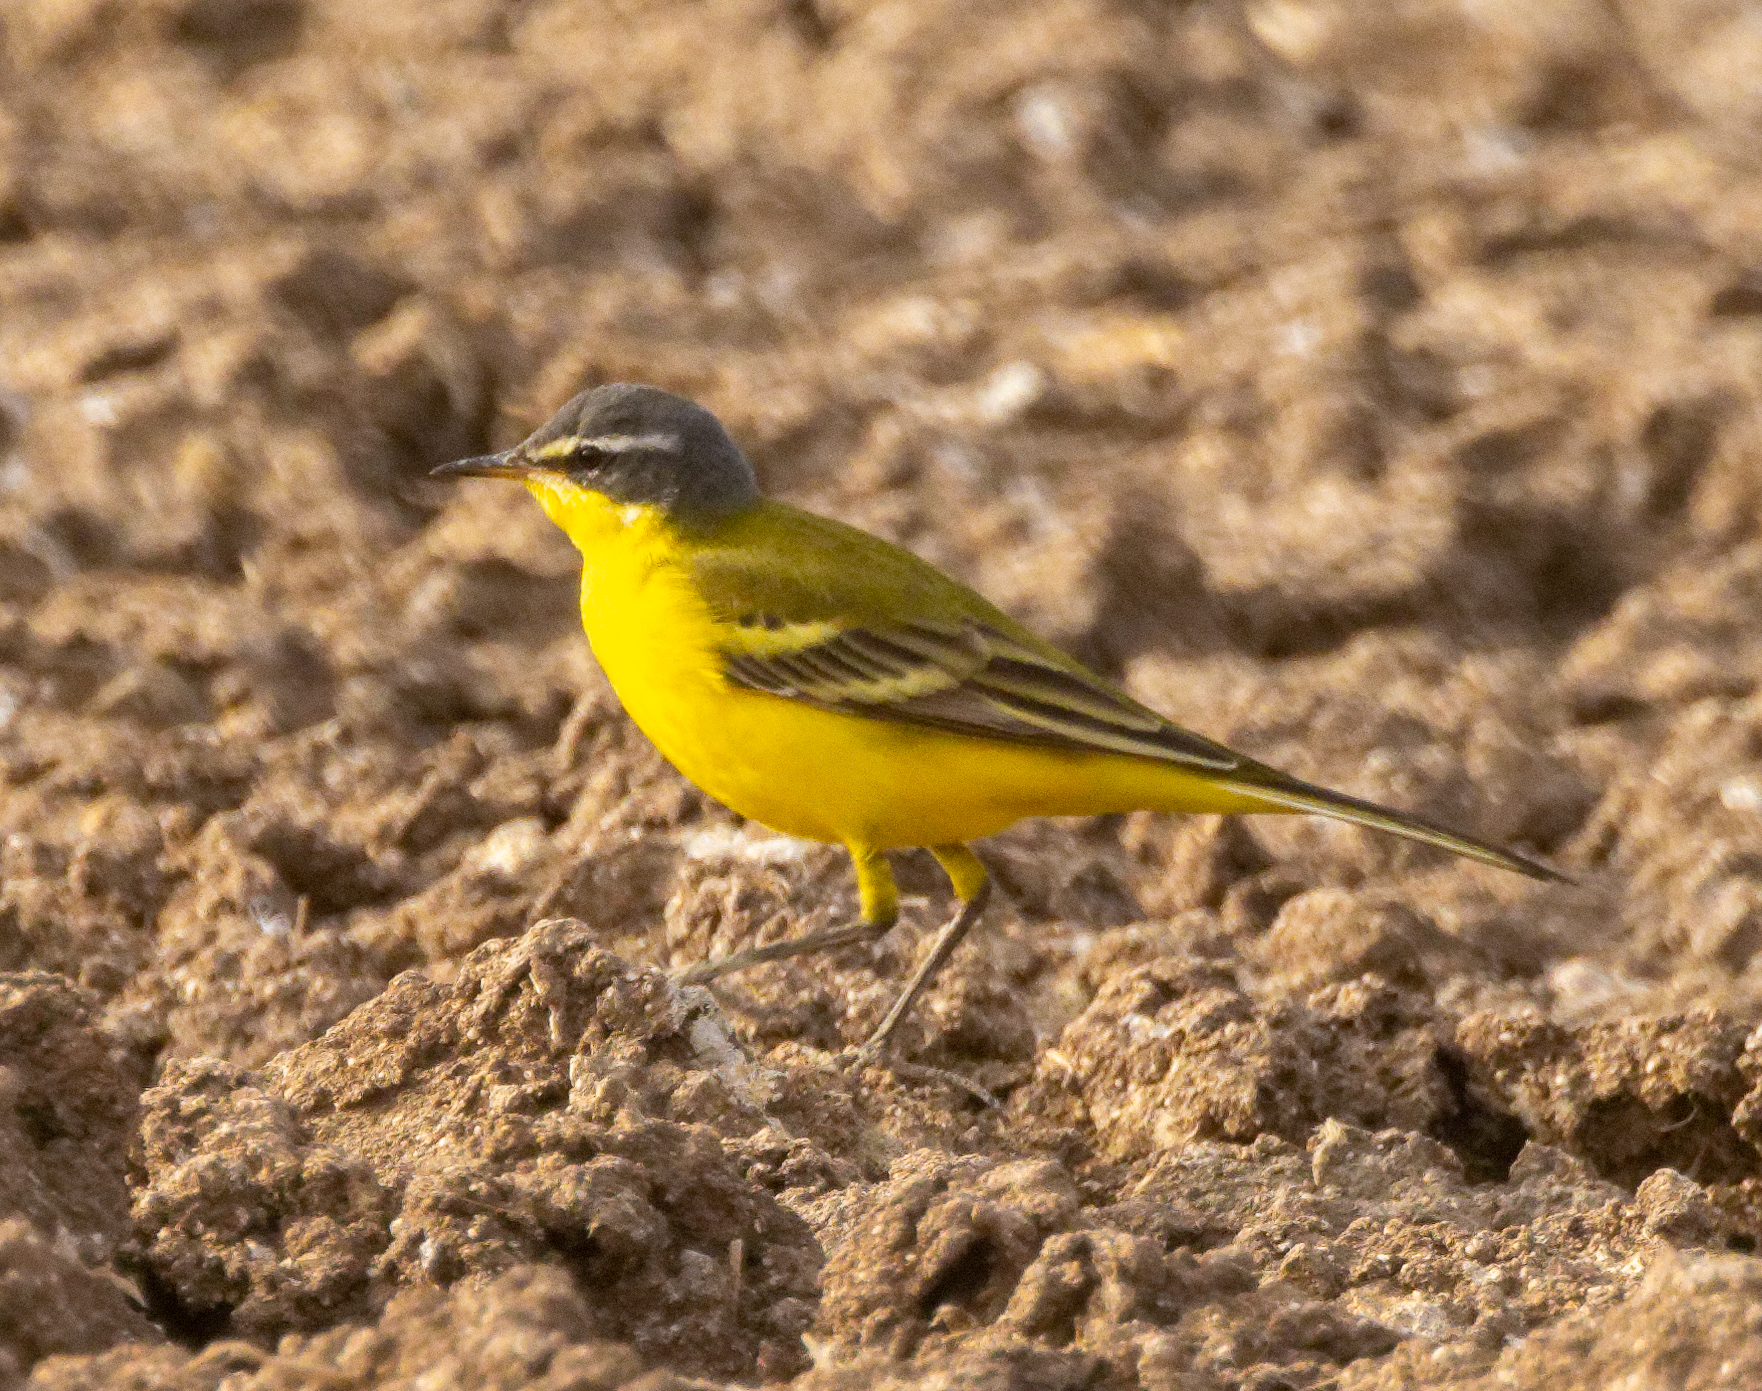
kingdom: Animalia
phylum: Chordata
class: Aves
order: Passeriformes
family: Motacillidae
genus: Motacilla
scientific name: Motacilla flava
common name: Western yellow wagtail
